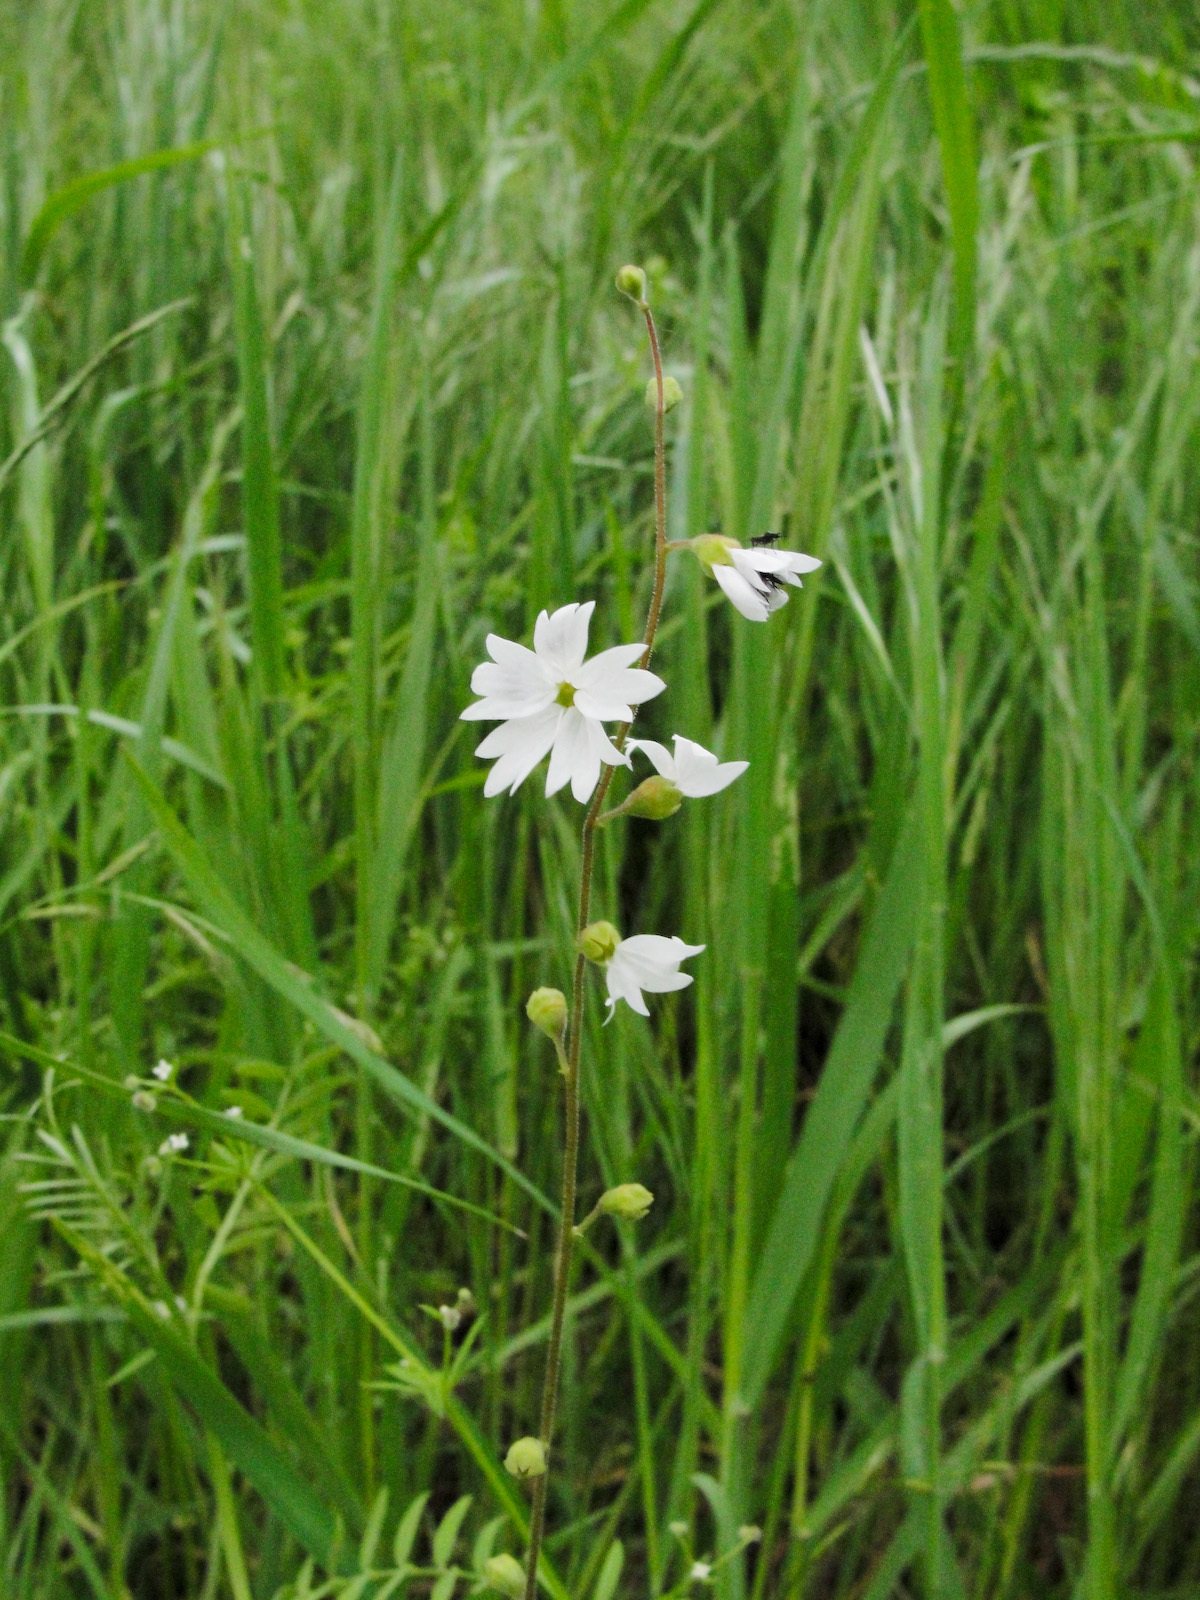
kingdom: Plantae
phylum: Tracheophyta
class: Magnoliopsida
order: Saxifragales
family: Saxifragaceae
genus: Lithophragma
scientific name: Lithophragma affine
